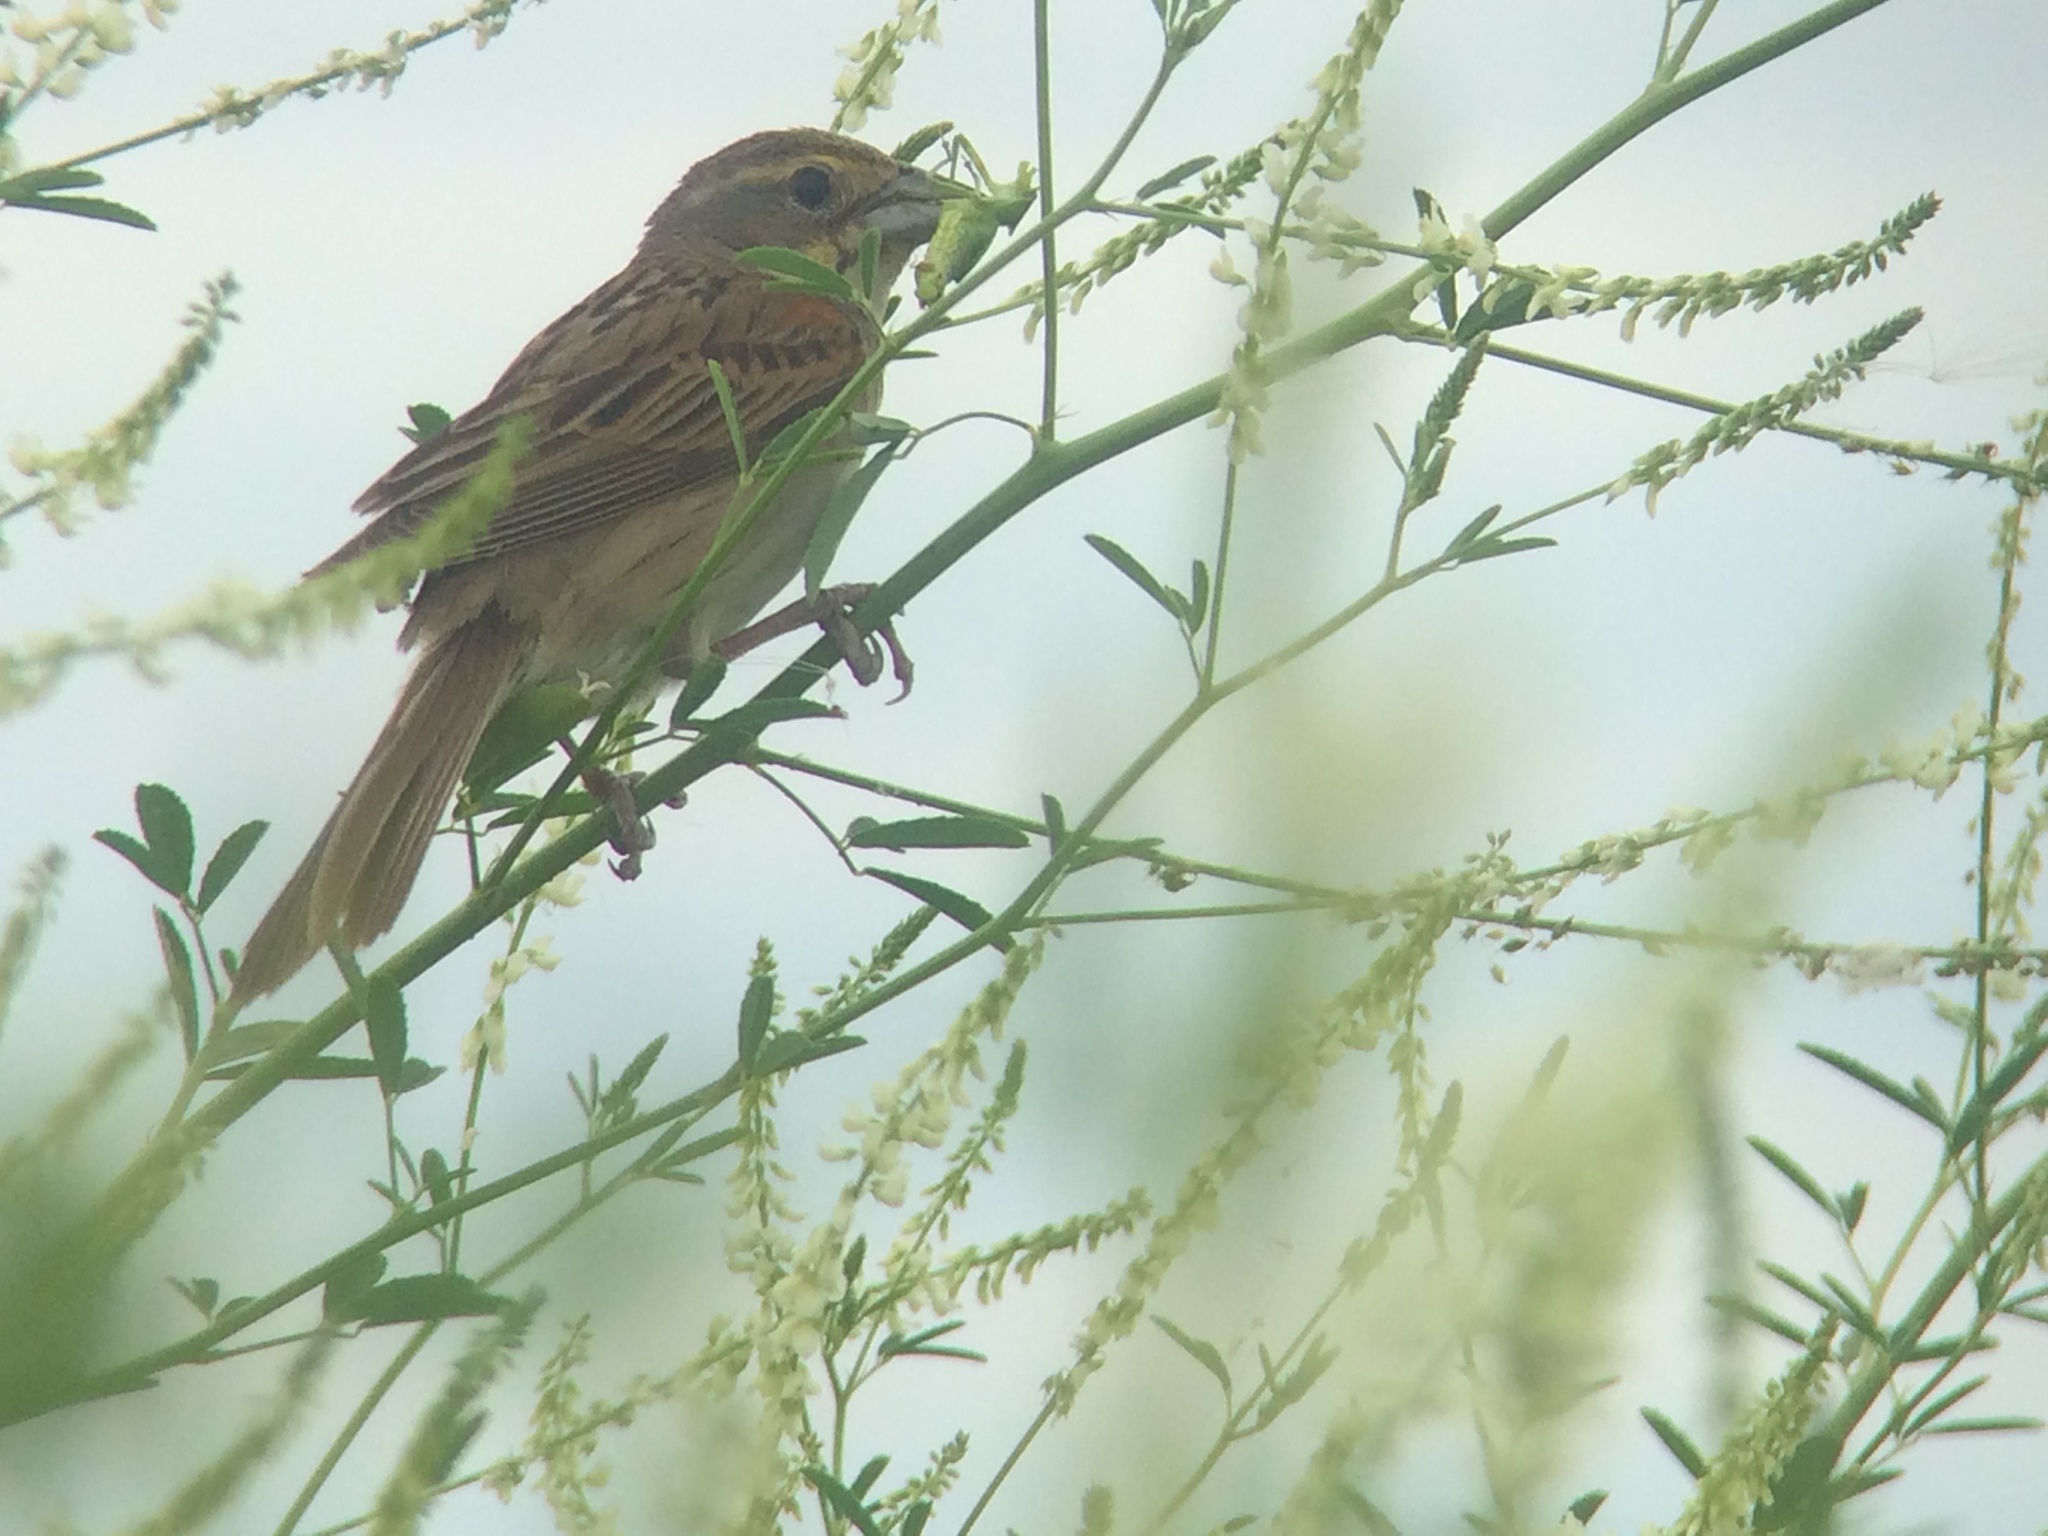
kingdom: Animalia
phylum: Chordata
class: Aves
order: Passeriformes
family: Cardinalidae
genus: Spiza
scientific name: Spiza americana
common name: Dickcissel
